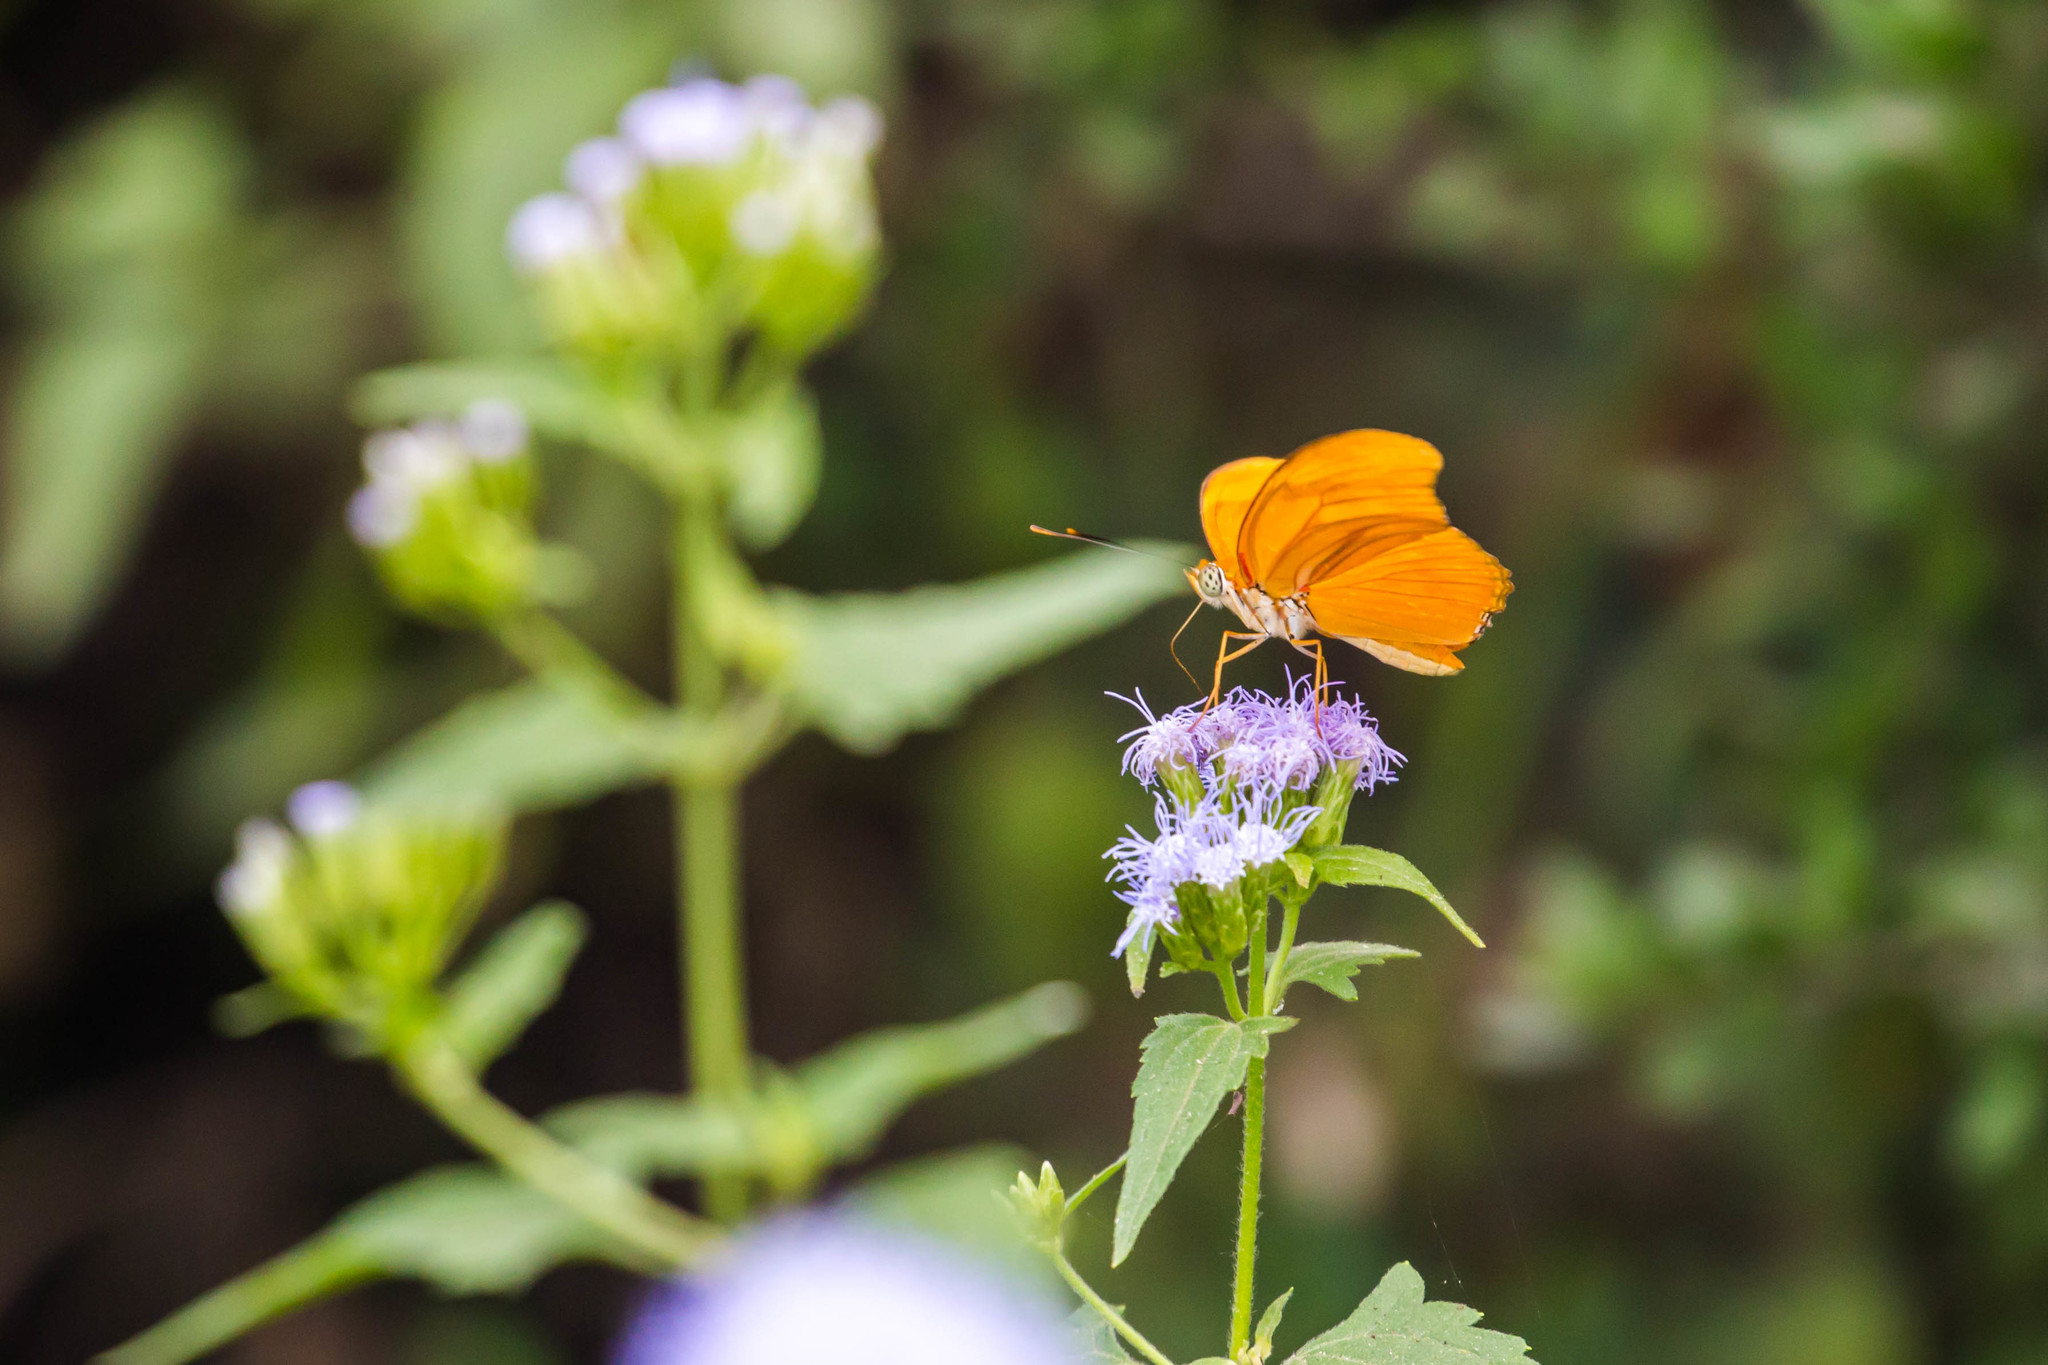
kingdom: Animalia
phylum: Arthropoda
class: Insecta
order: Lepidoptera
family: Nymphalidae
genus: Dryas
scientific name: Dryas iulia
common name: Flambeau
